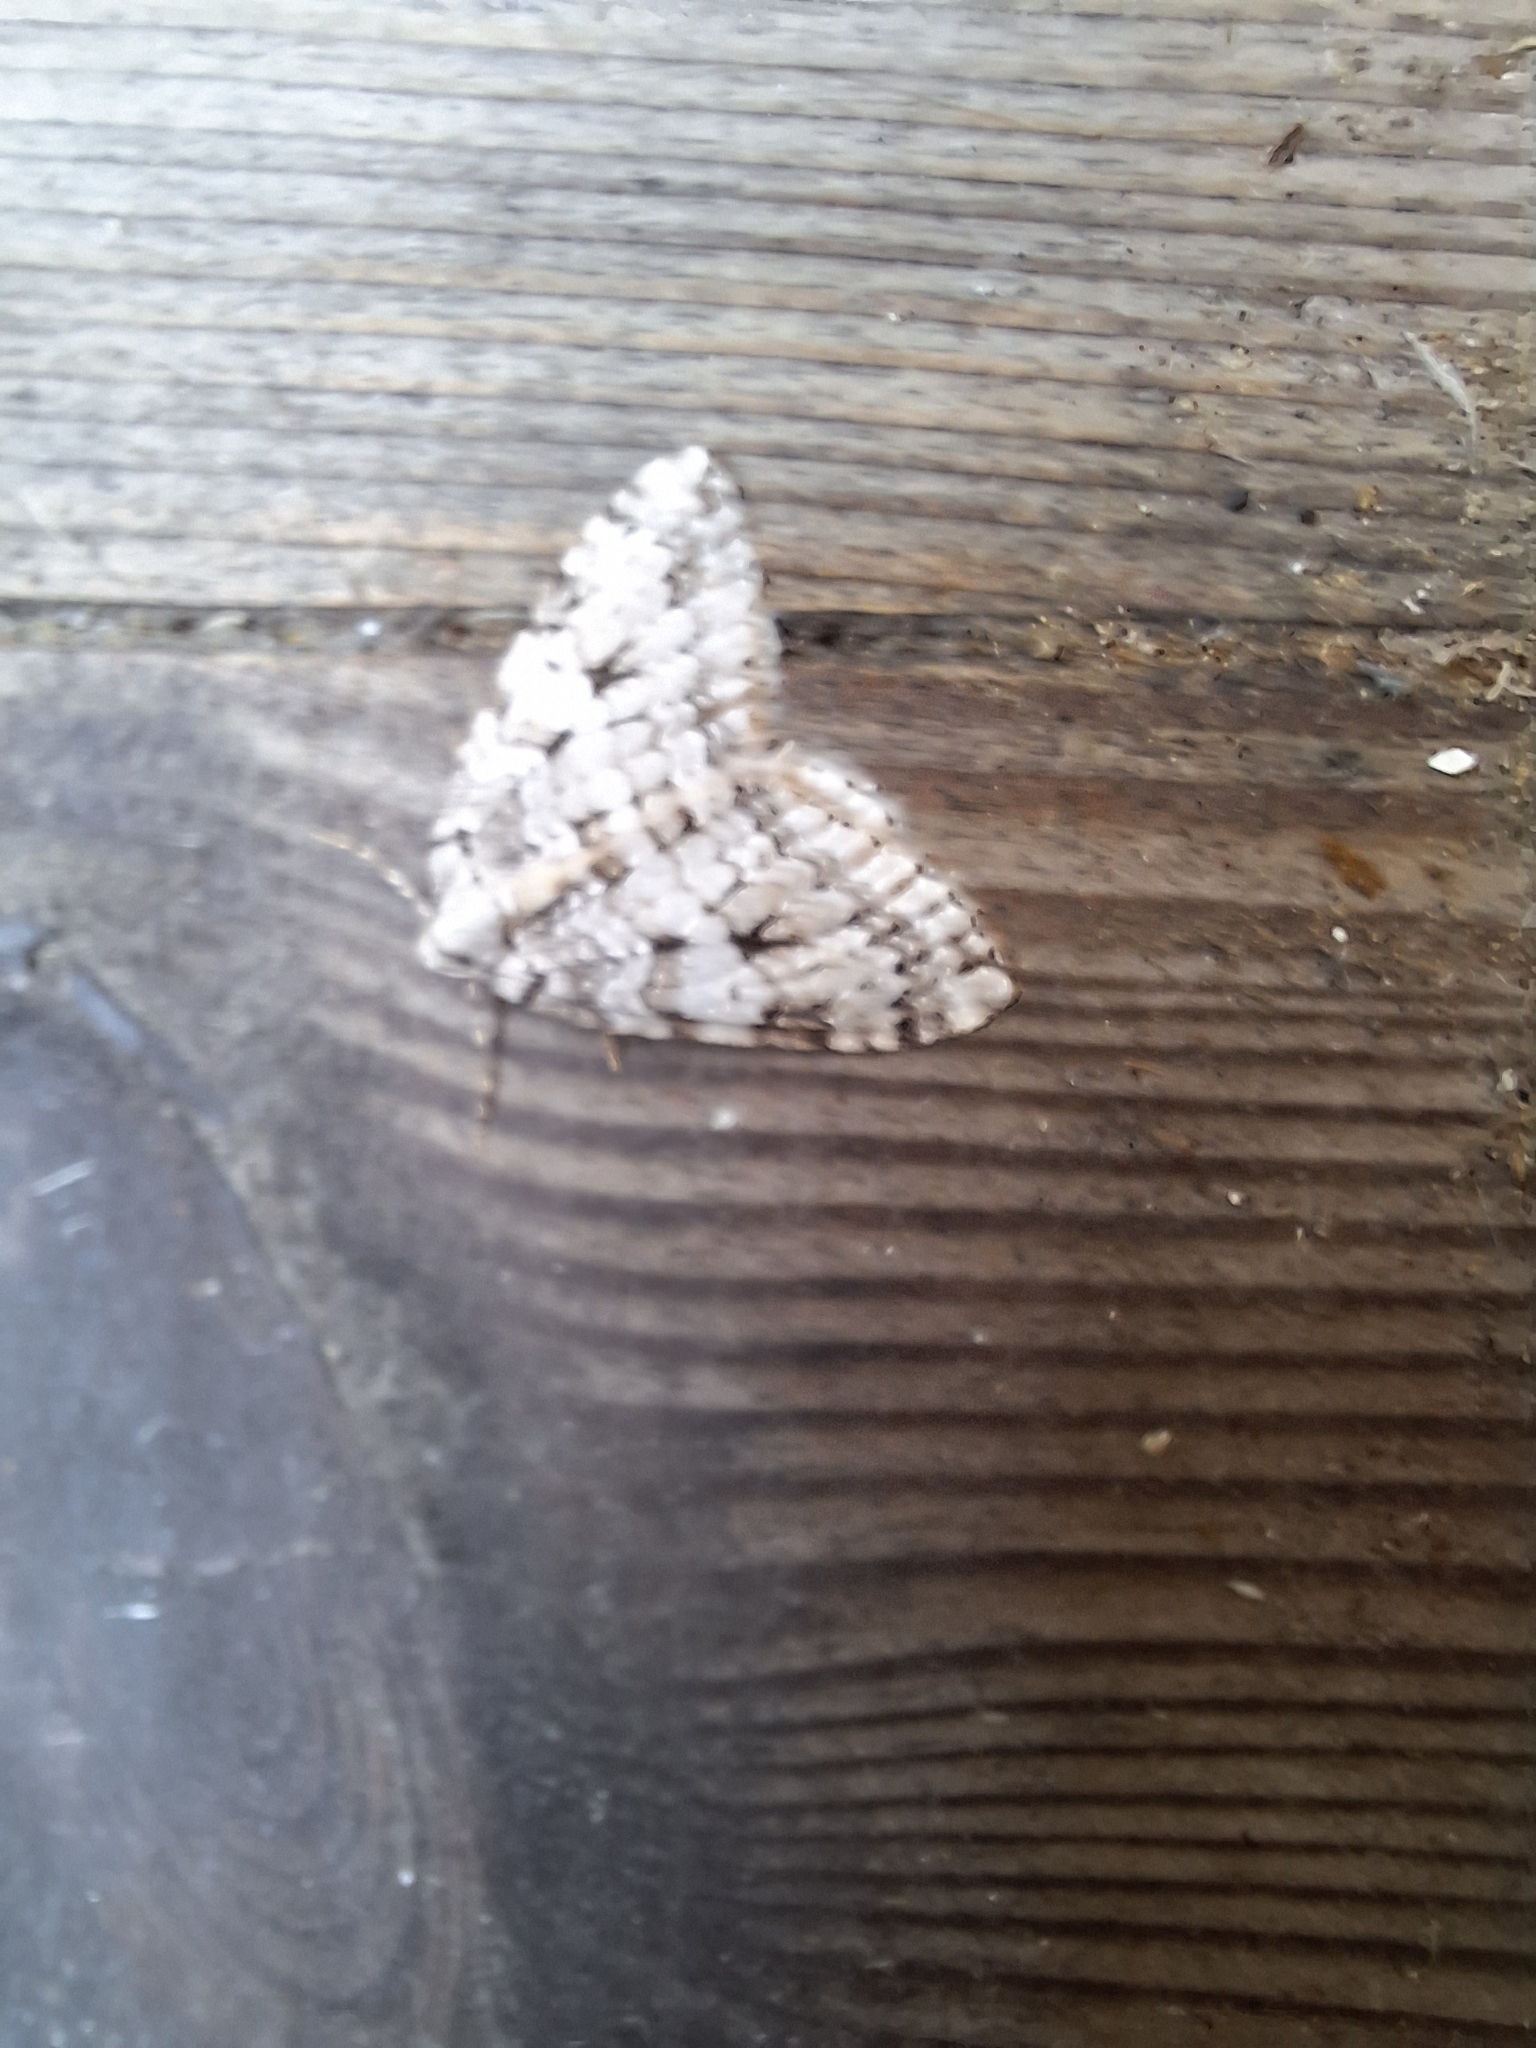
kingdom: Animalia
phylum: Arthropoda
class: Insecta
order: Lepidoptera
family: Geometridae
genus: Epirrita
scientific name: Epirrita autumnata
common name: Autumnal moth
